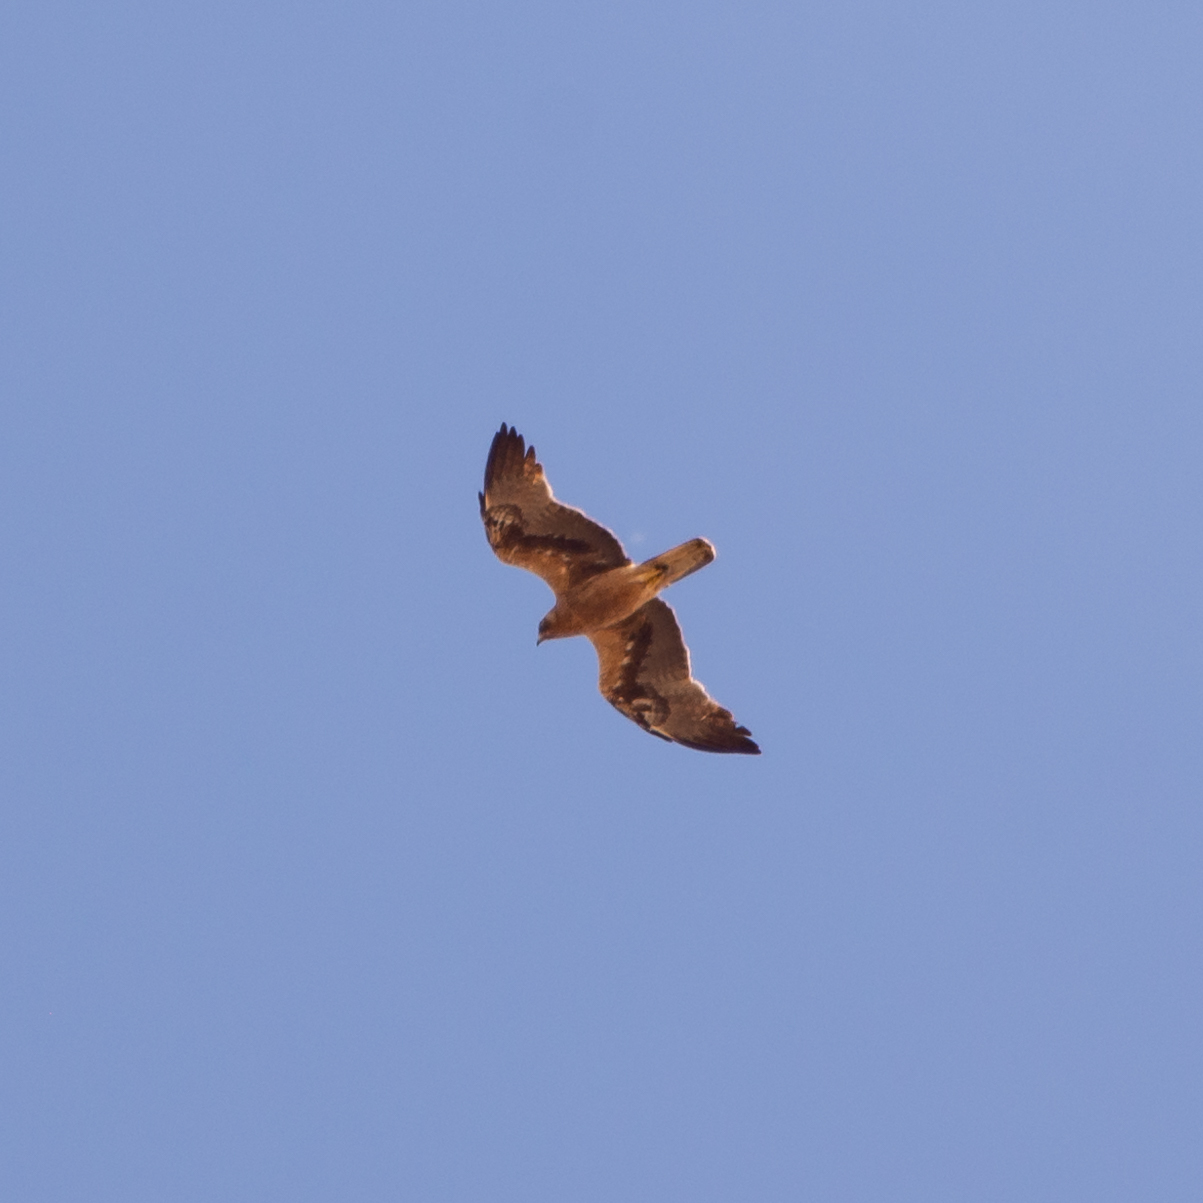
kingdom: Animalia
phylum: Chordata
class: Aves
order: Accipitriformes
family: Accipitridae
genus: Hieraaetus
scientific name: Hieraaetus pennatus
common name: Booted eagle
